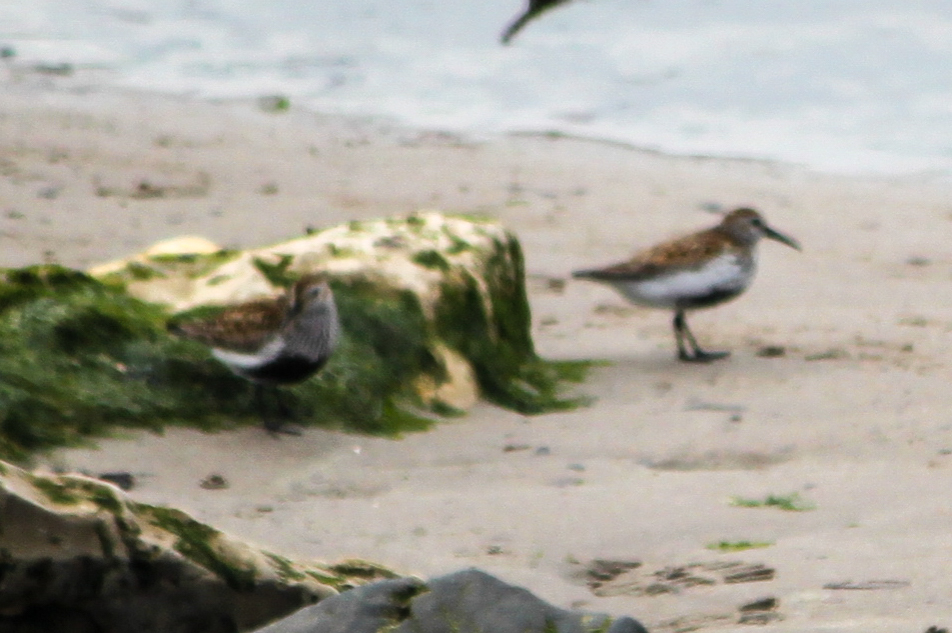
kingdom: Animalia
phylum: Chordata
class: Aves
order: Charadriiformes
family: Scolopacidae
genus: Calidris
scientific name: Calidris alpina
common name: Dunlin
